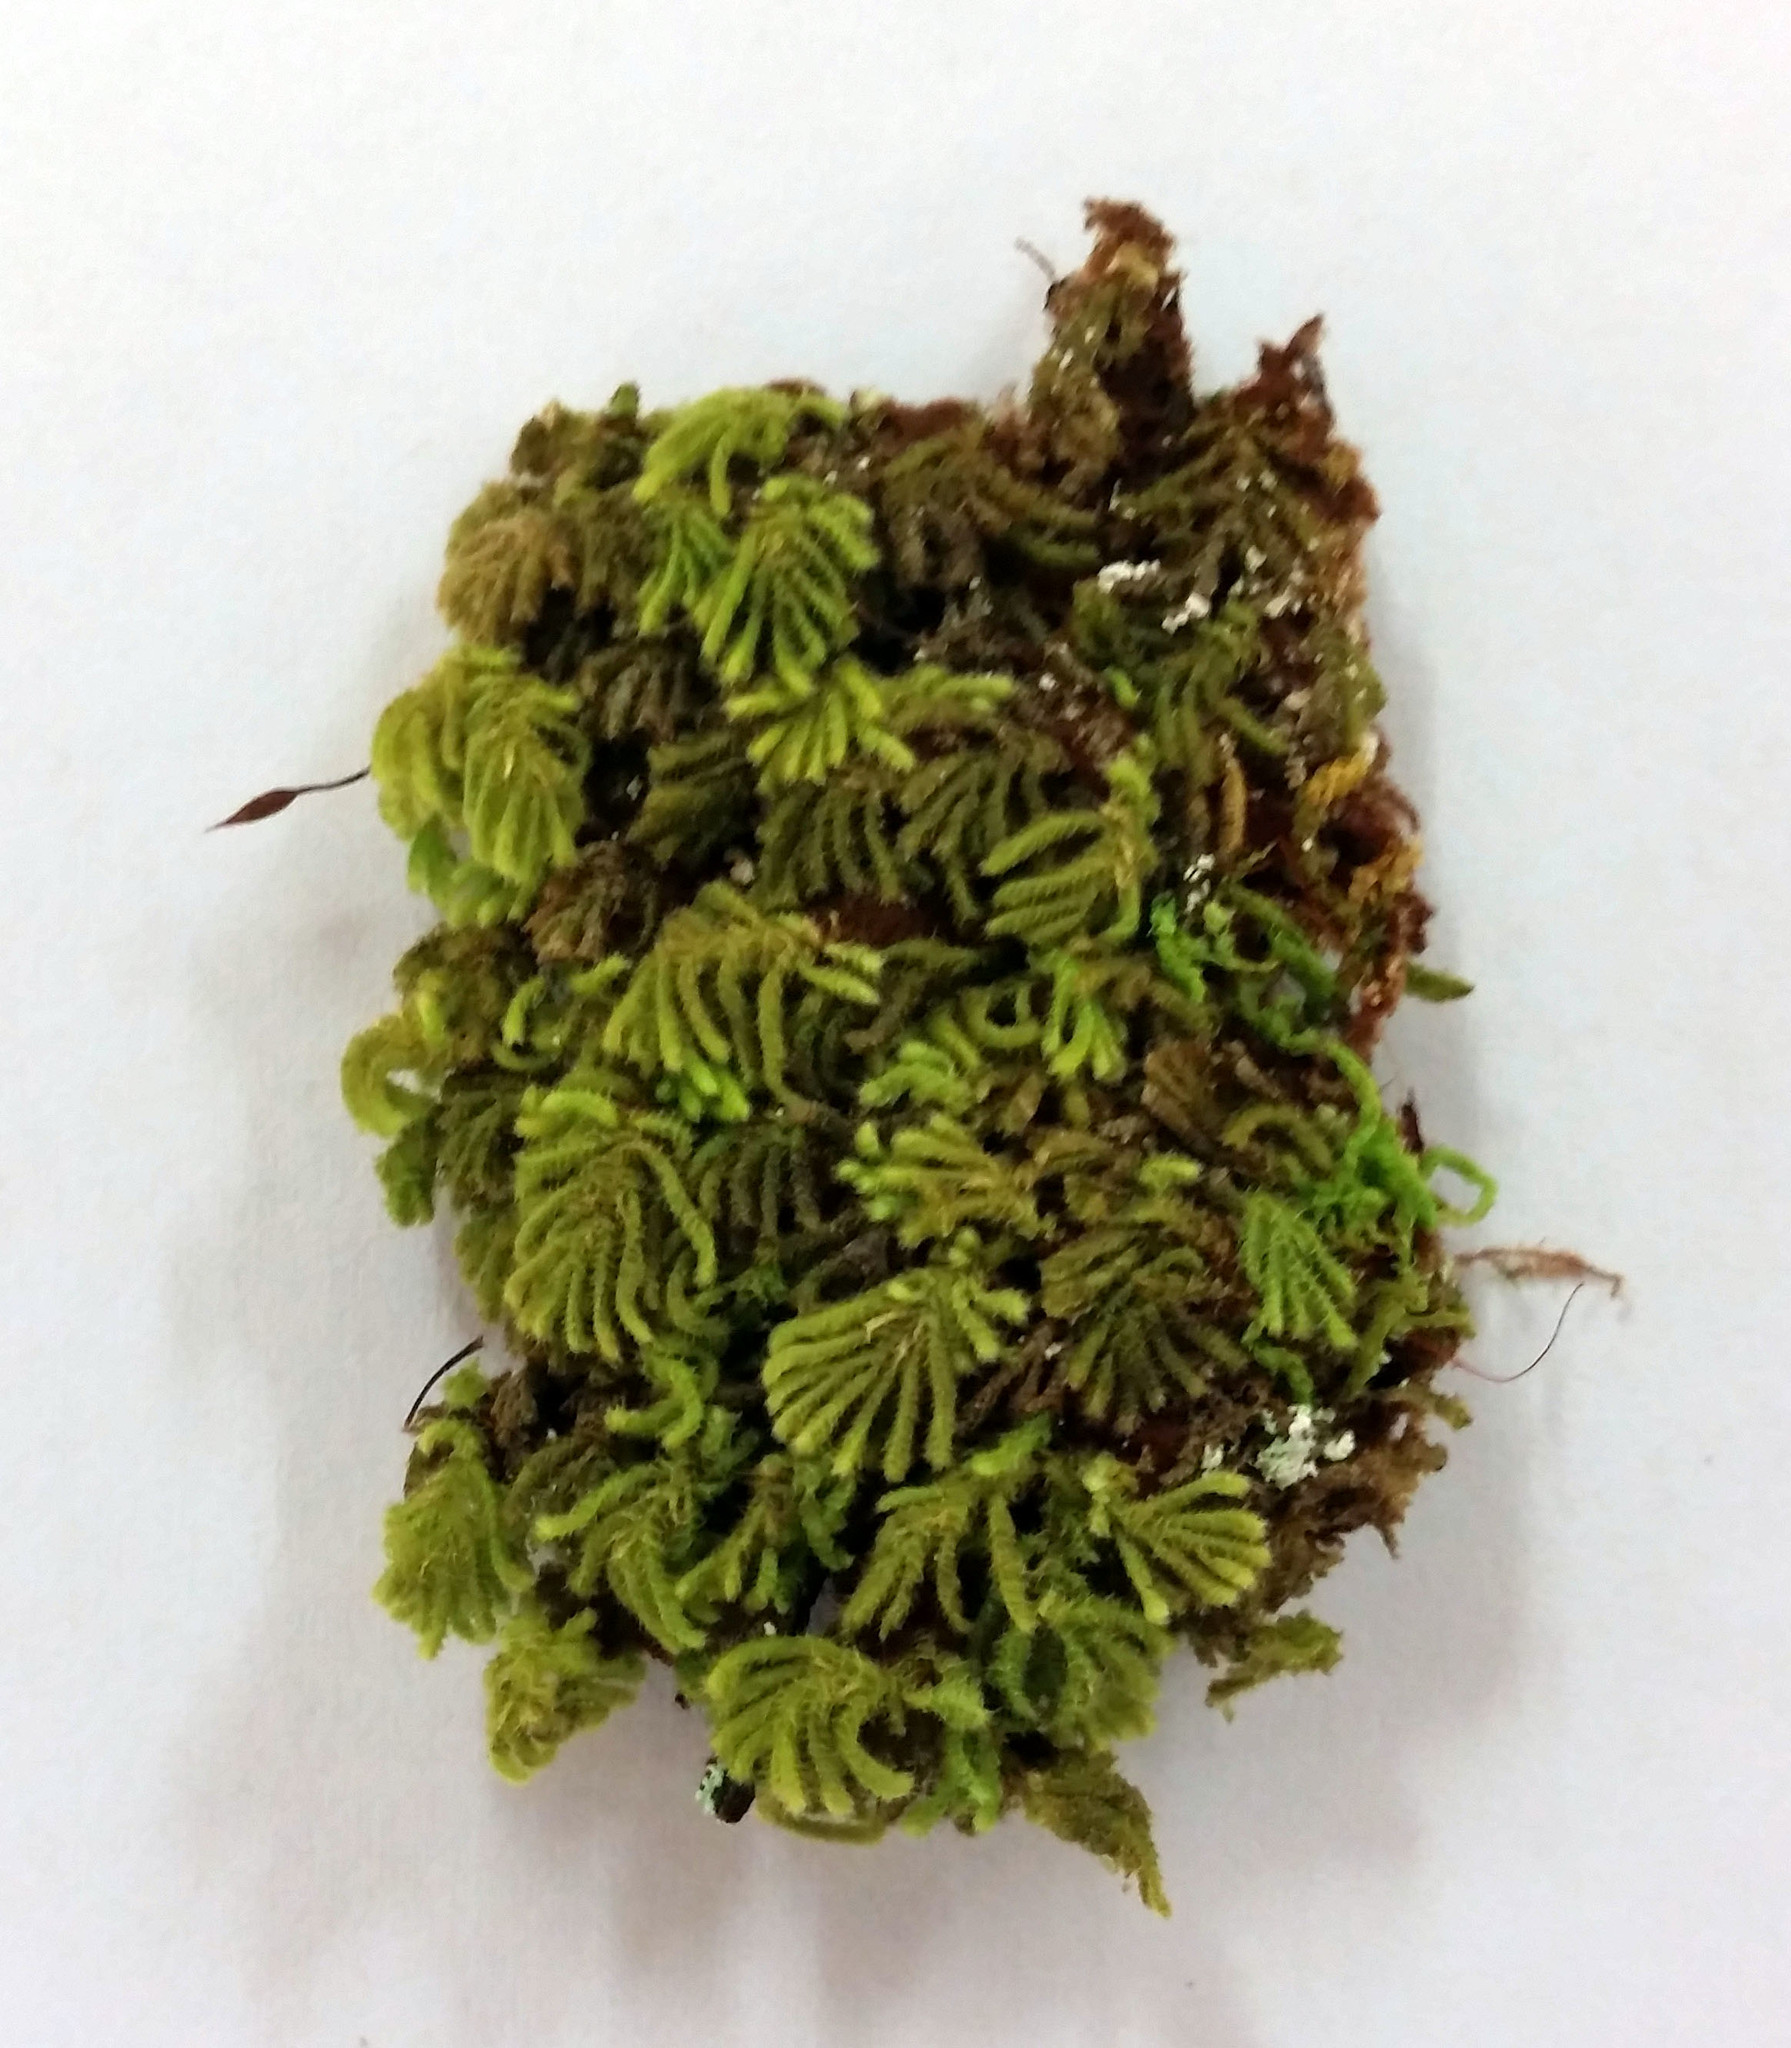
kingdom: Plantae
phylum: Bryophyta
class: Bryopsida
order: Hypopterygiales
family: Hypopterygiaceae
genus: Catharomnion
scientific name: Catharomnion ciliatum
